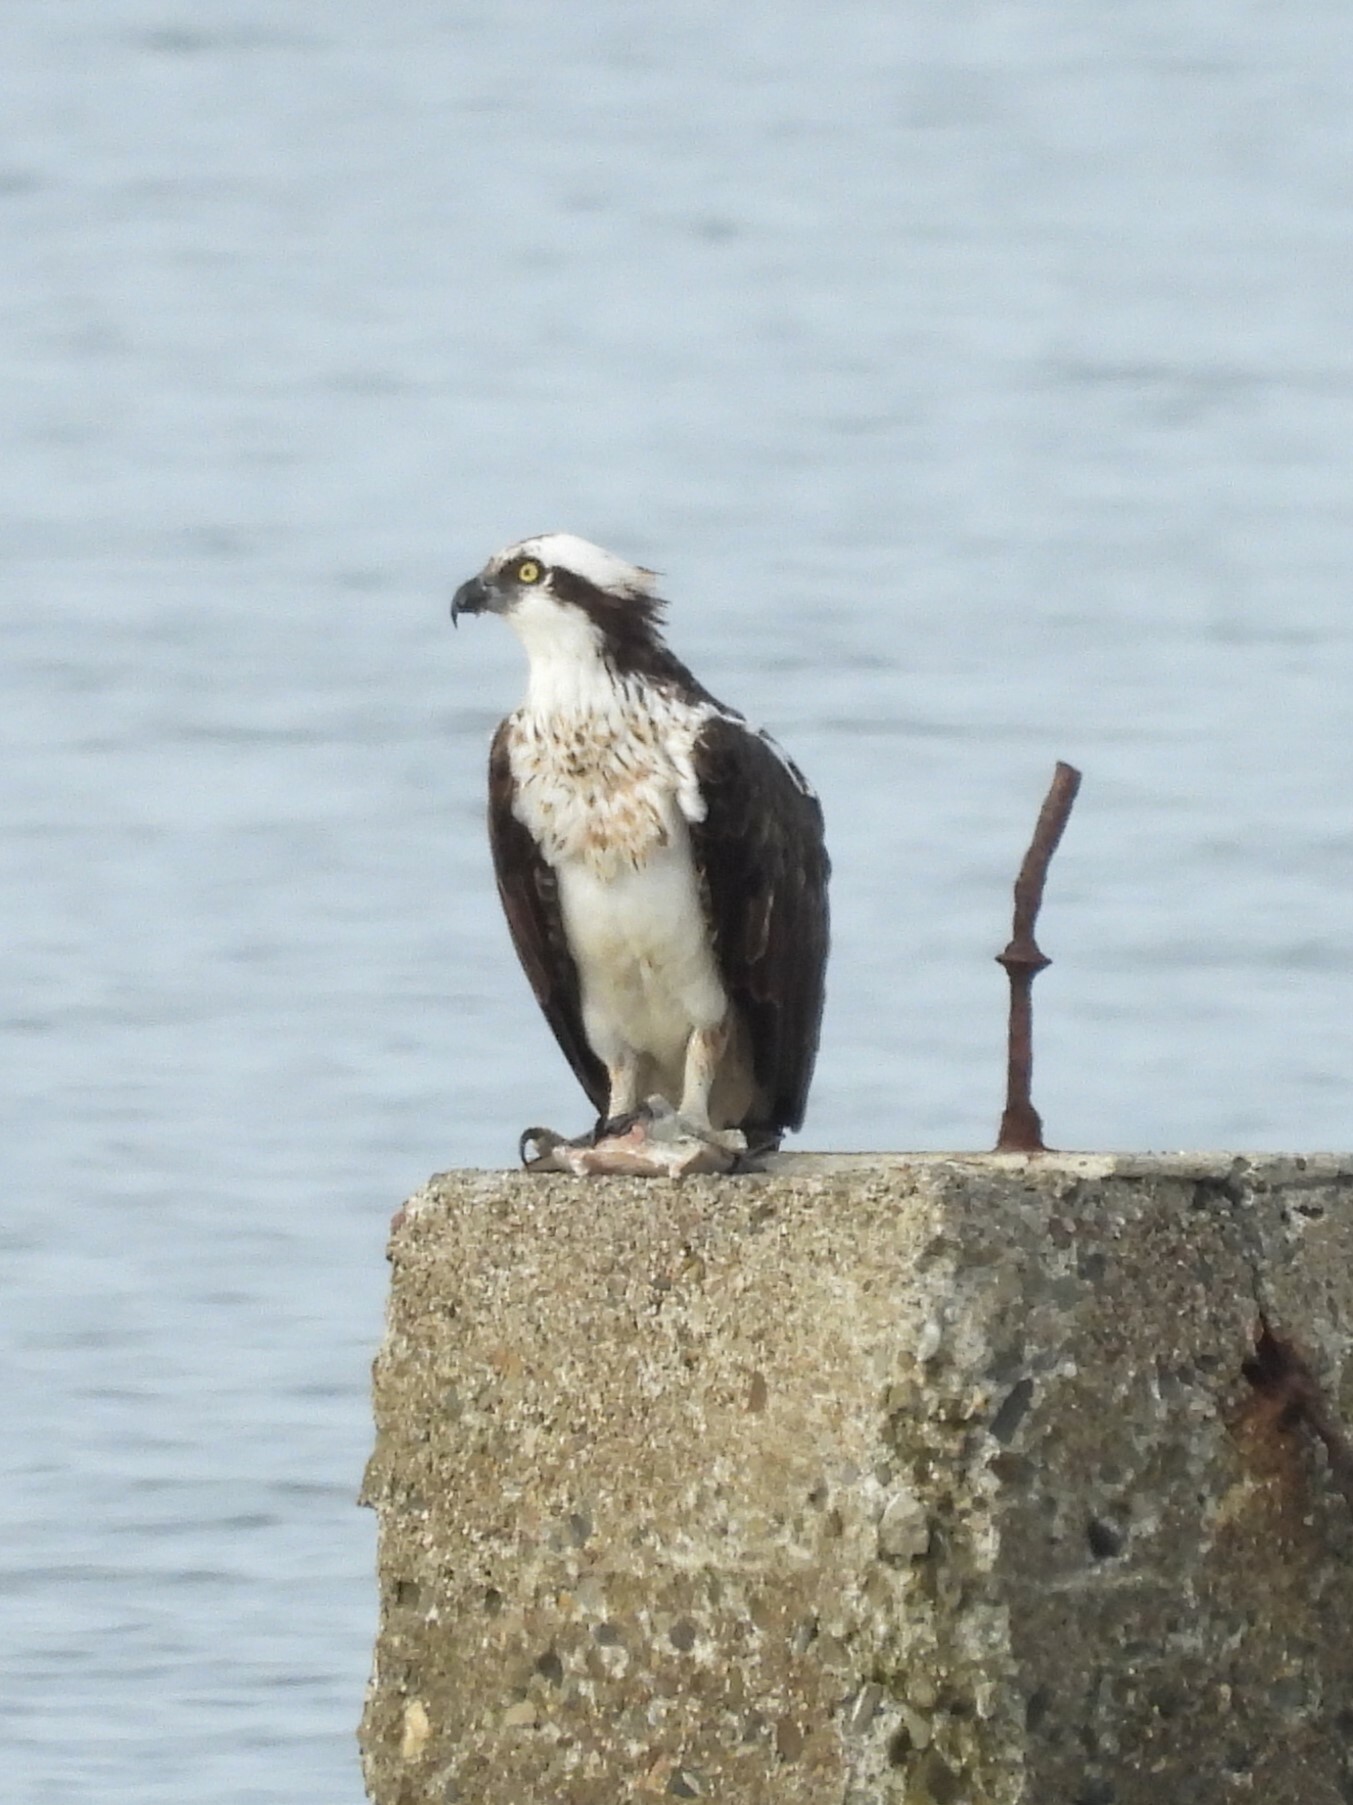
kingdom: Animalia
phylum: Chordata
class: Aves
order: Accipitriformes
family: Pandionidae
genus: Pandion
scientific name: Pandion haliaetus
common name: Osprey
